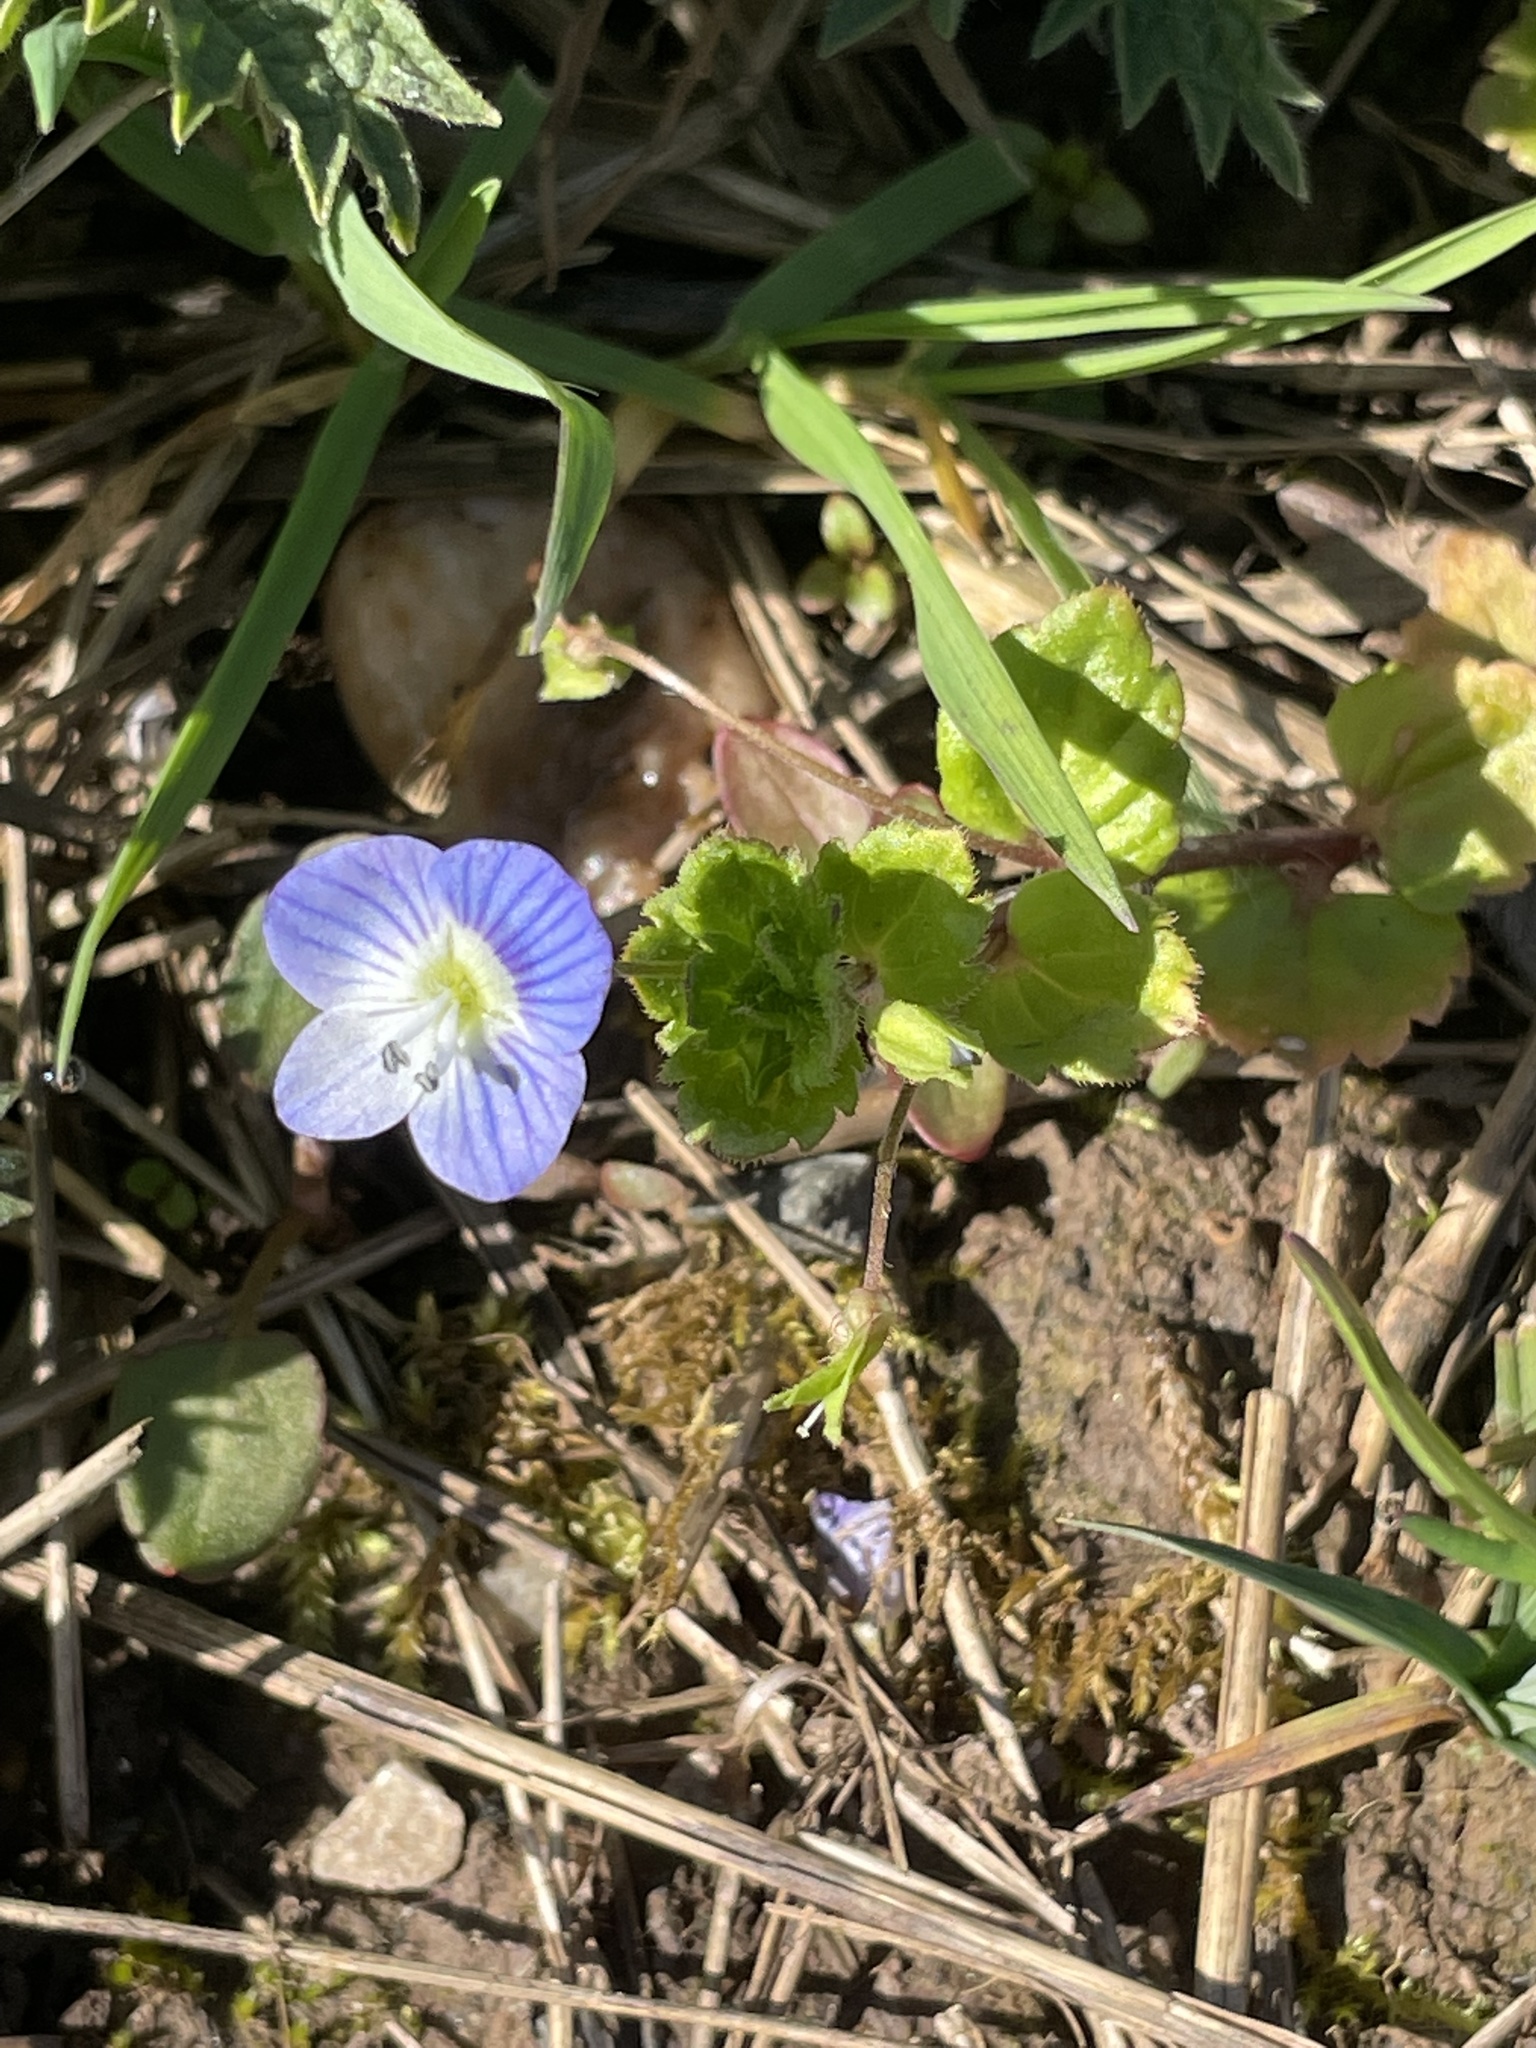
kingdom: Plantae
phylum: Tracheophyta
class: Magnoliopsida
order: Lamiales
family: Plantaginaceae
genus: Veronica
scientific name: Veronica persica
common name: Common field-speedwell
